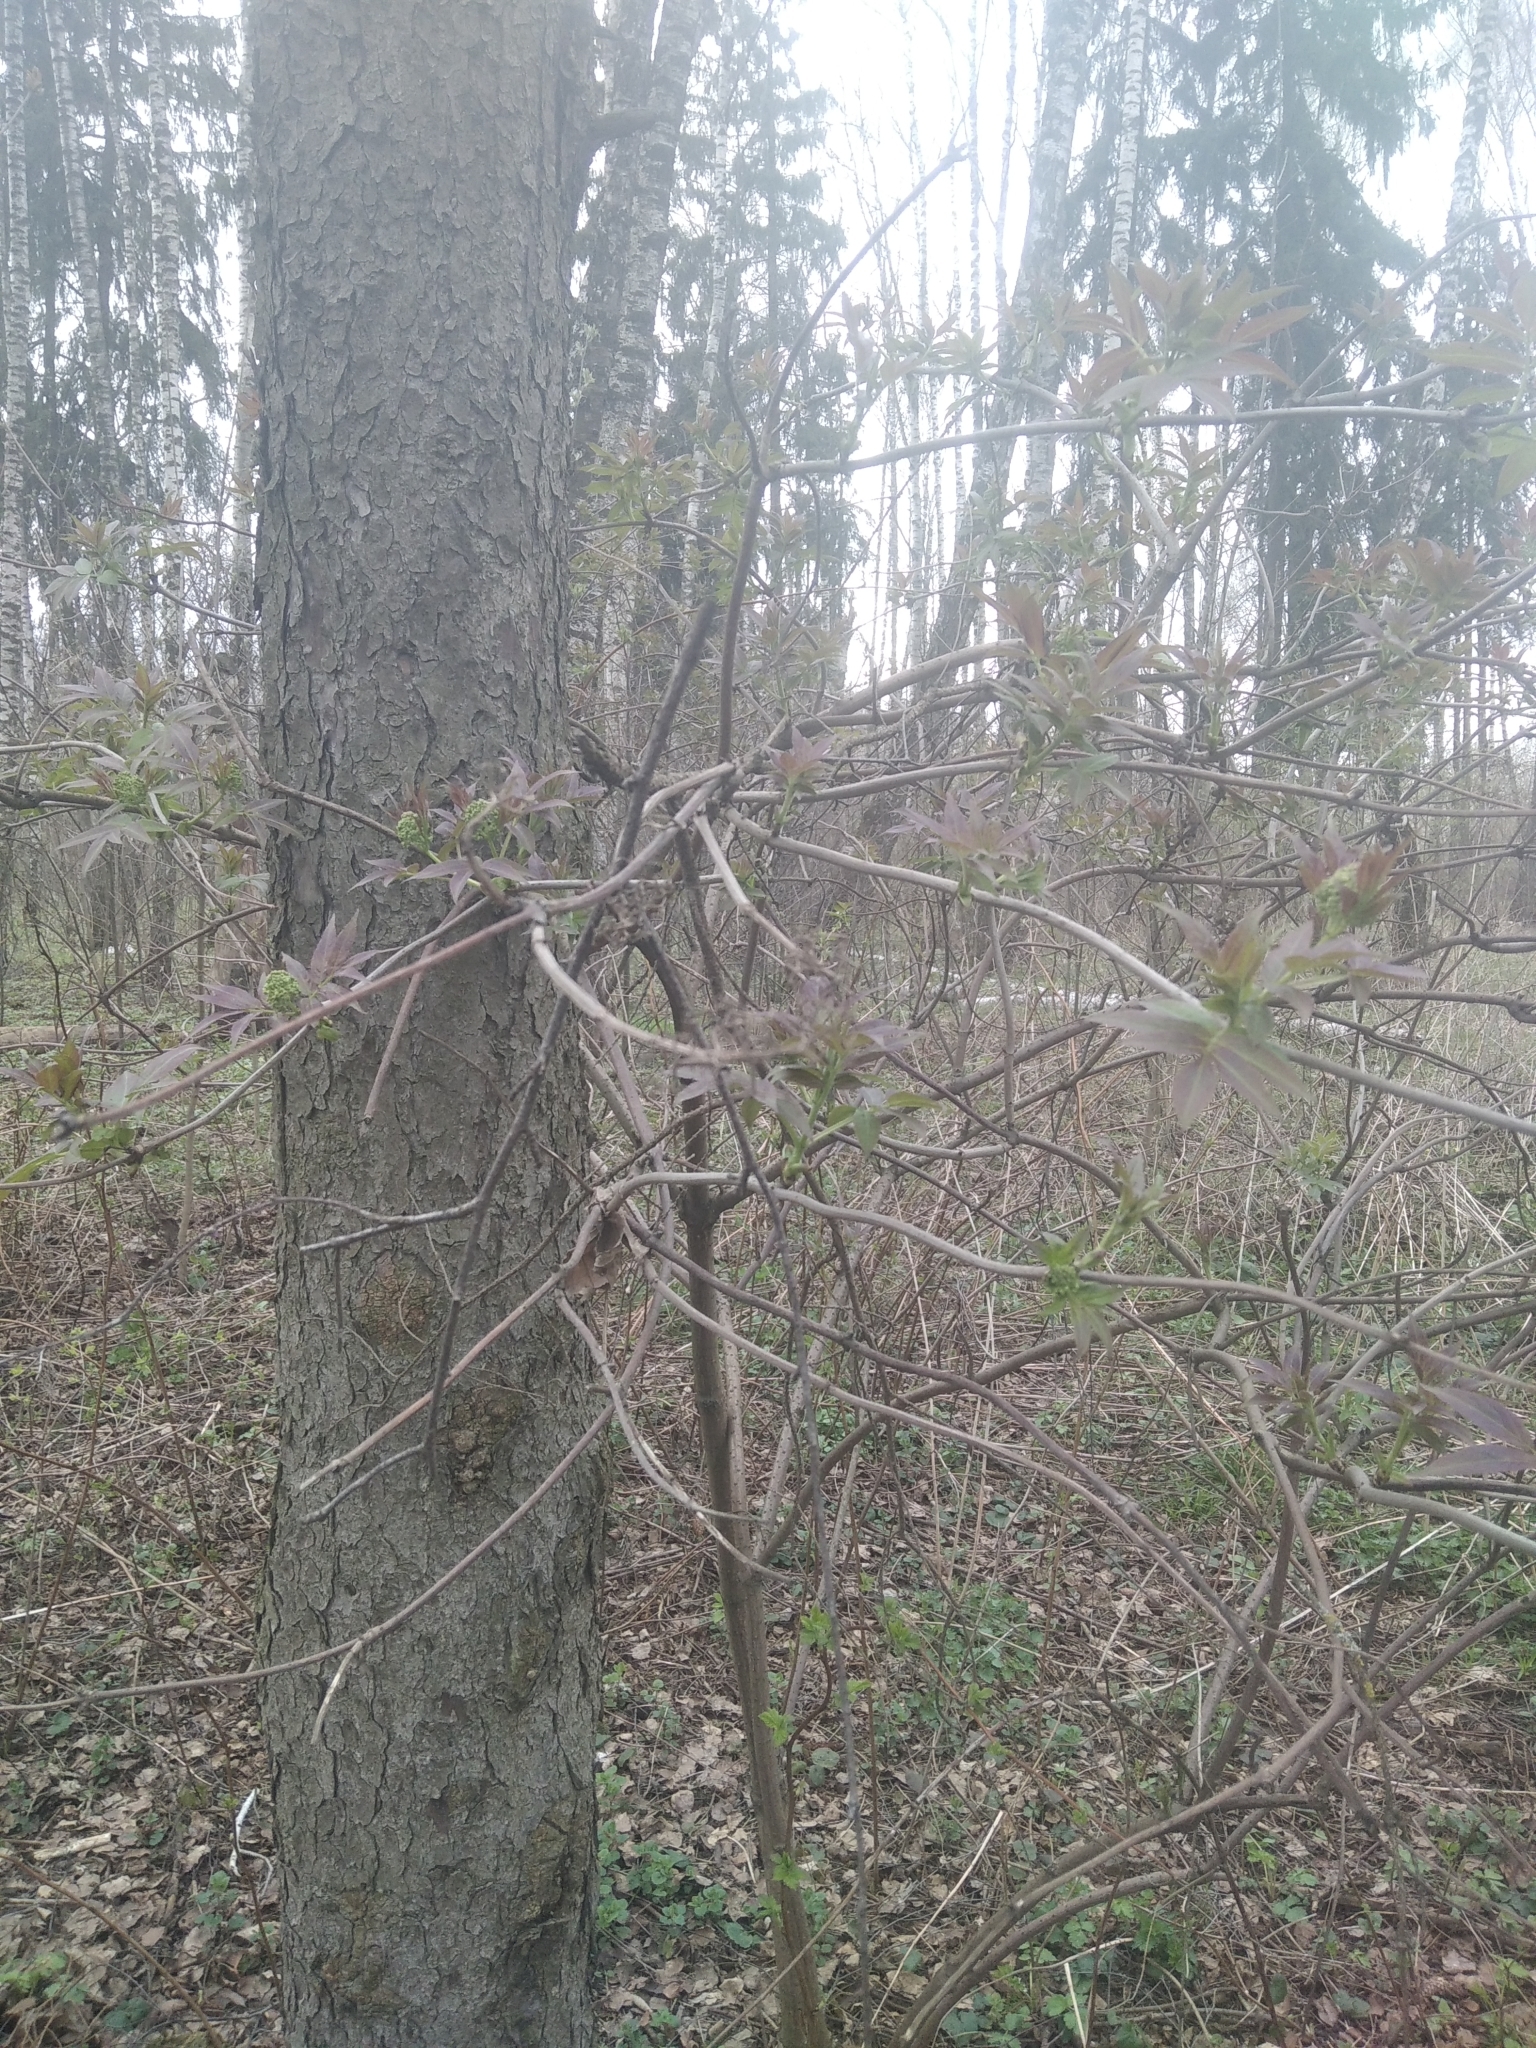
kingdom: Plantae
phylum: Tracheophyta
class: Magnoliopsida
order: Dipsacales
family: Viburnaceae
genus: Sambucus
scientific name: Sambucus racemosa
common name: Red-berried elder
